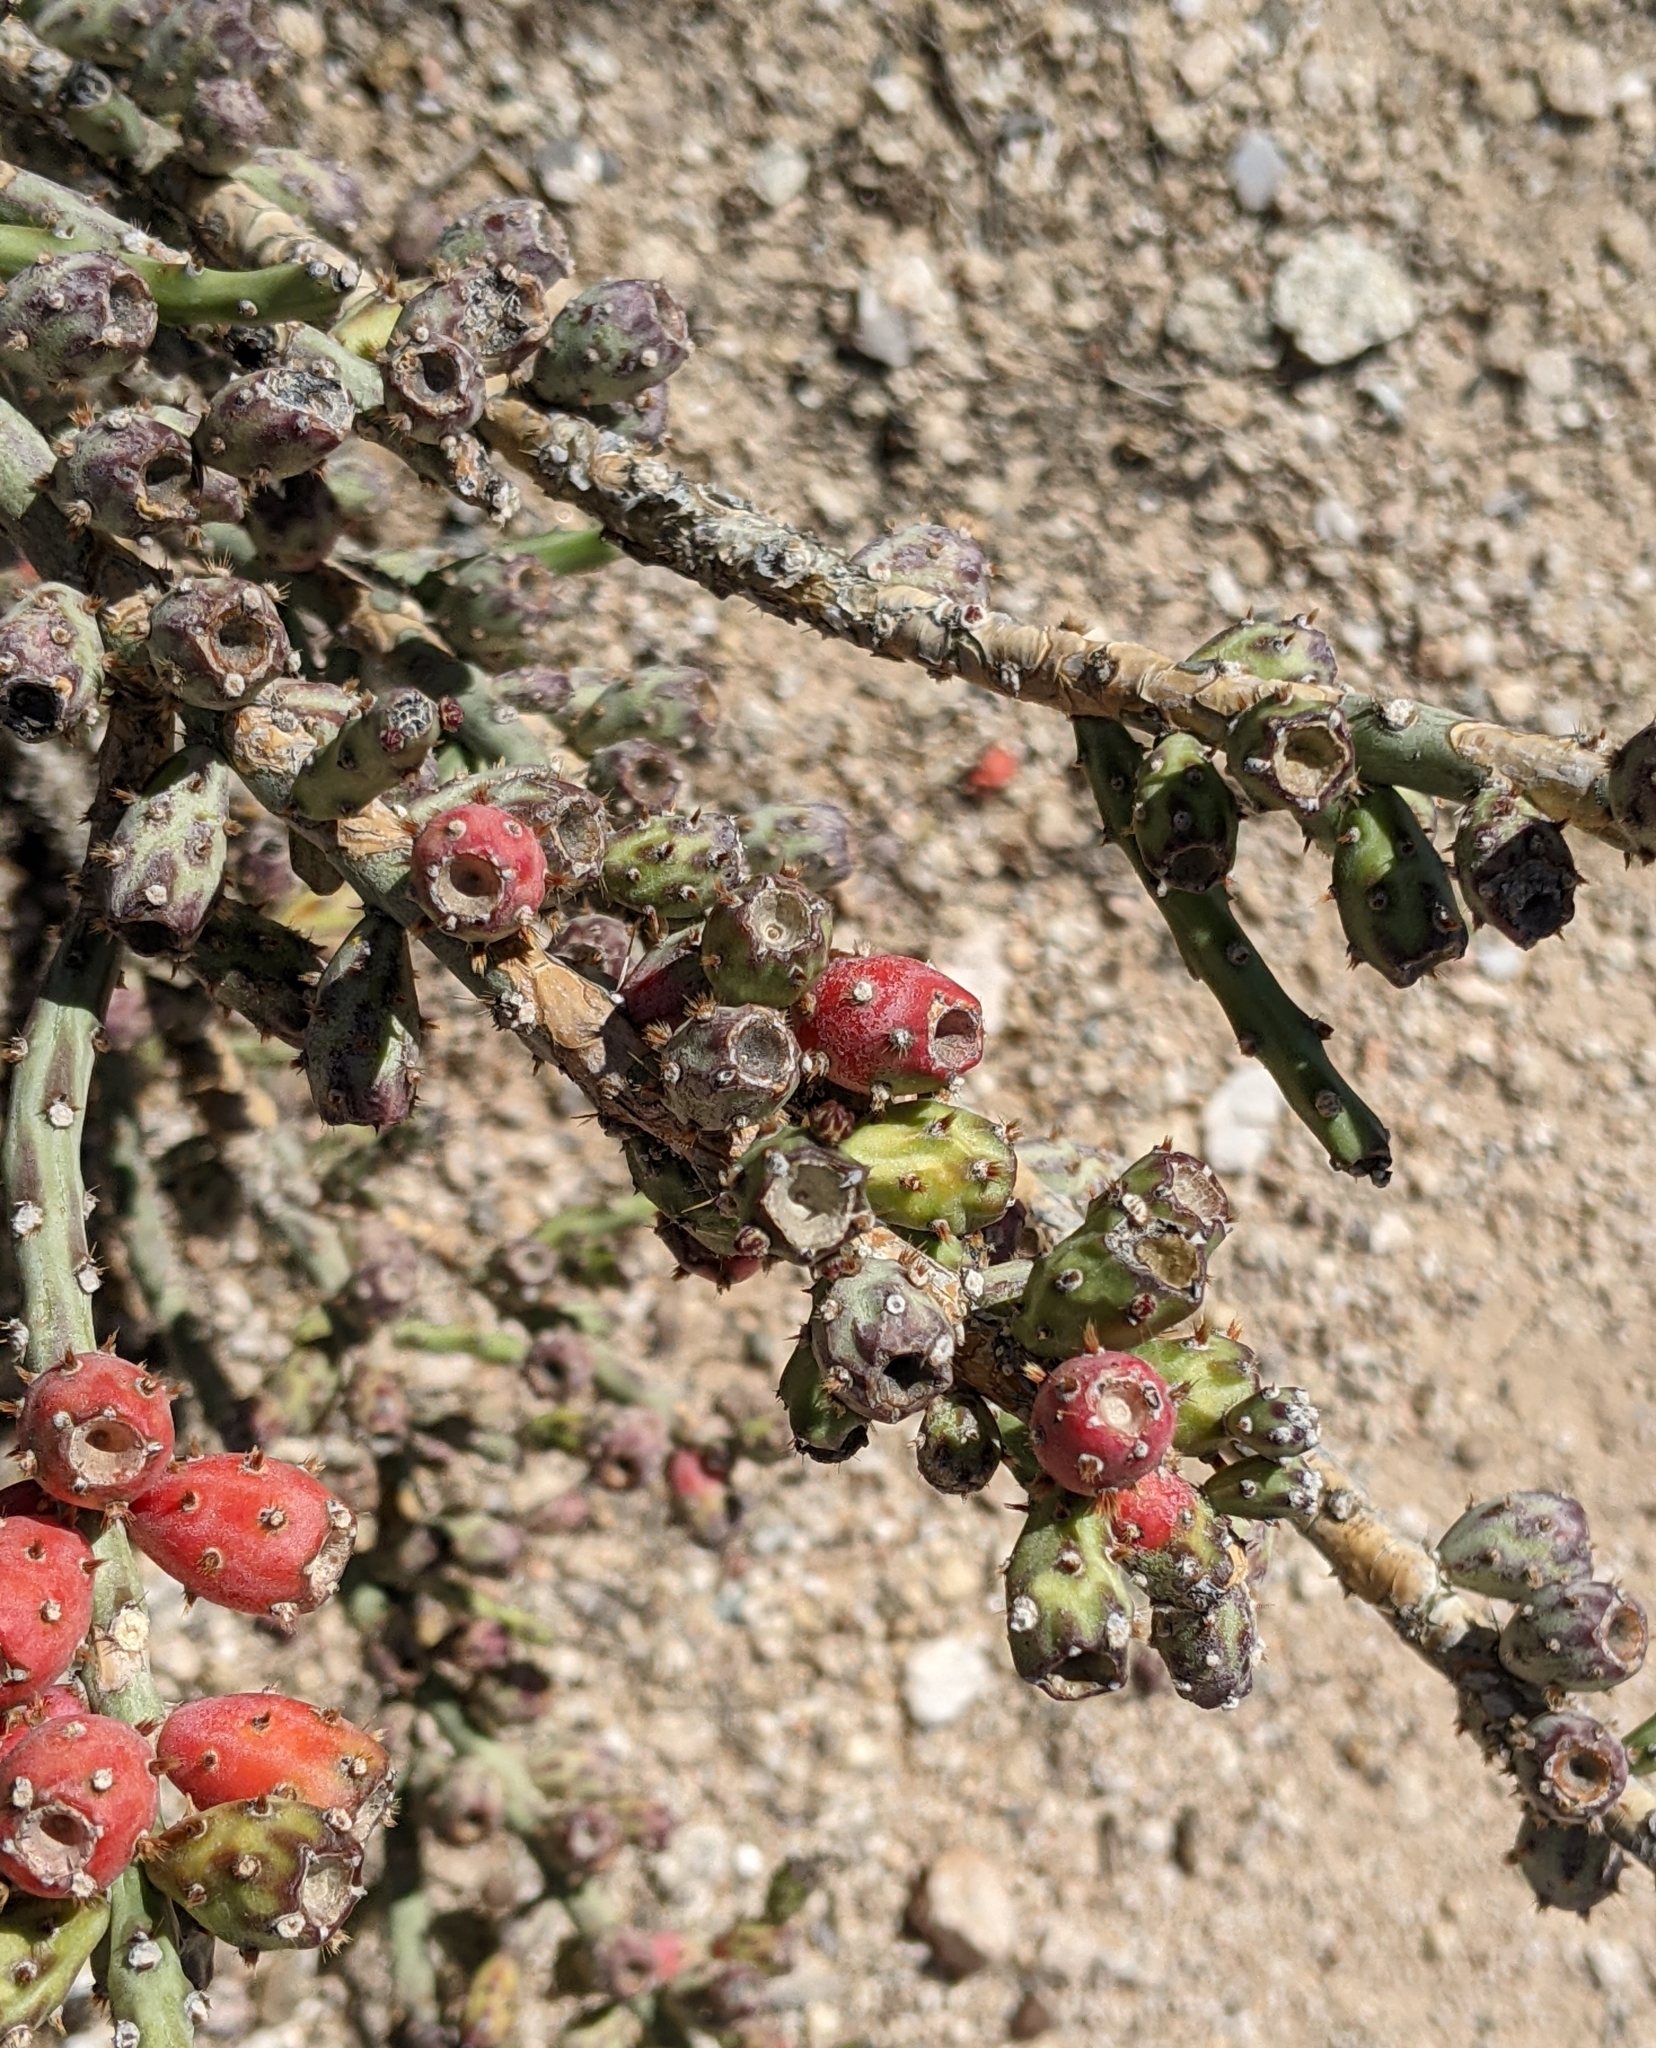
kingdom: Plantae
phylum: Tracheophyta
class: Magnoliopsida
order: Caryophyllales
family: Cactaceae
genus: Cylindropuntia
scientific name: Cylindropuntia leptocaulis
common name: Christmas cactus
